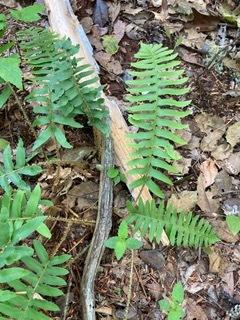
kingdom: Plantae
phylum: Tracheophyta
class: Polypodiopsida
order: Polypodiales
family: Dryopteridaceae
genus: Polystichum
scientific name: Polystichum acrostichoides
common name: Christmas fern
